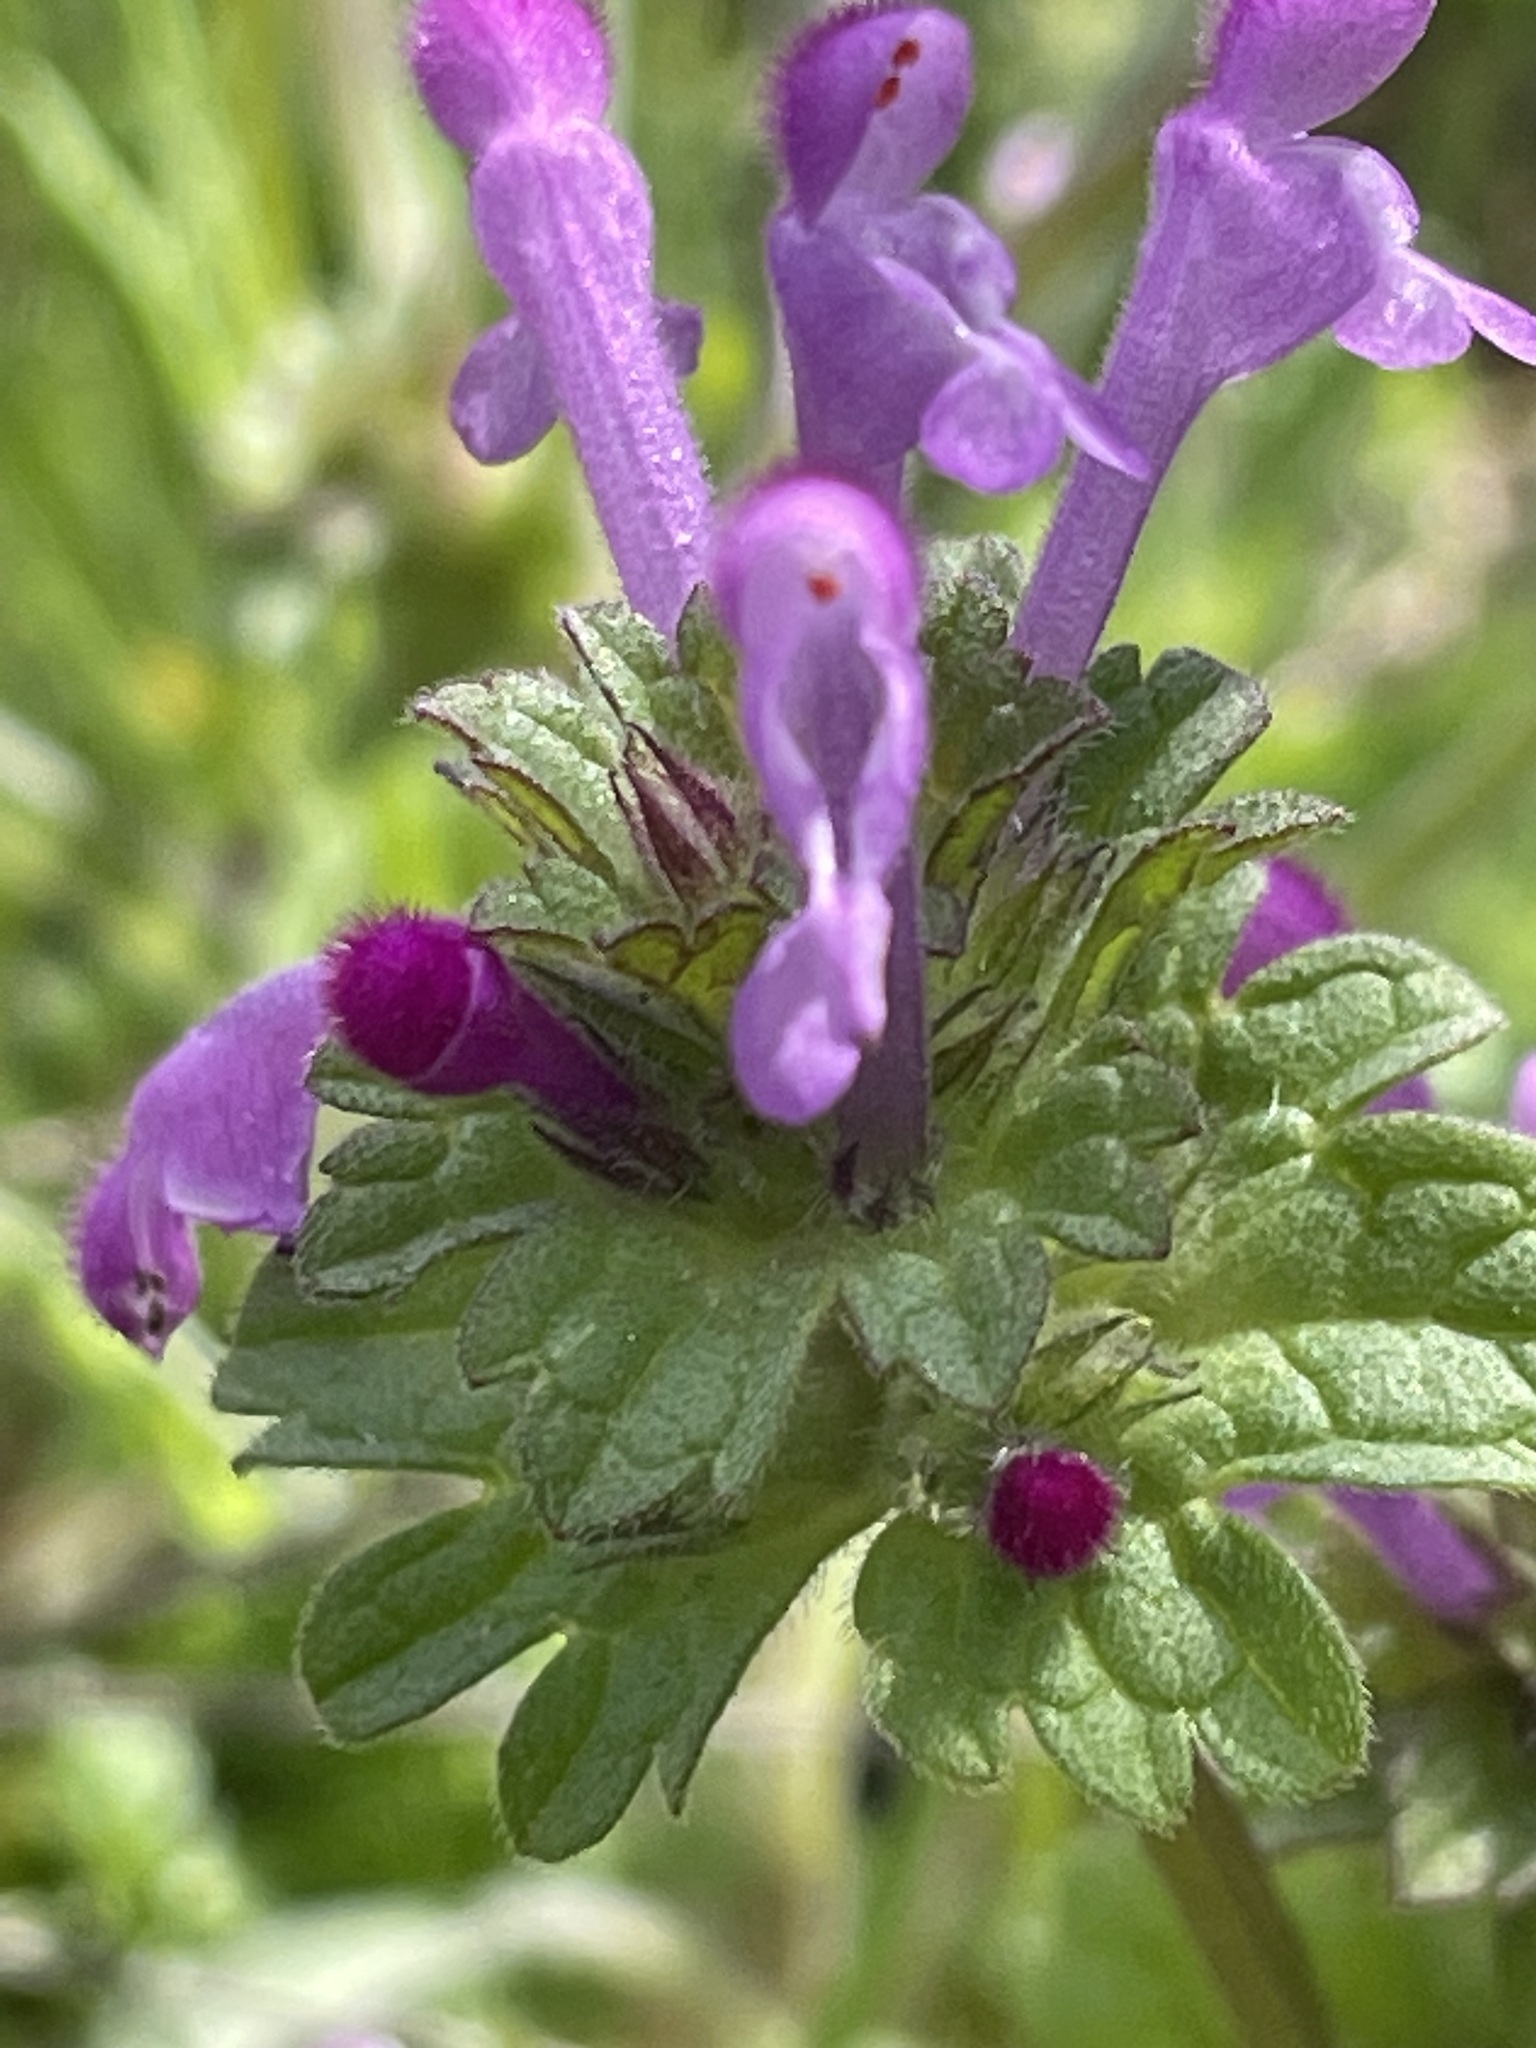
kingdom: Plantae
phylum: Tracheophyta
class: Magnoliopsida
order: Lamiales
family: Lamiaceae
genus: Lamium
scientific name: Lamium amplexicaule
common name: Henbit dead-nettle
